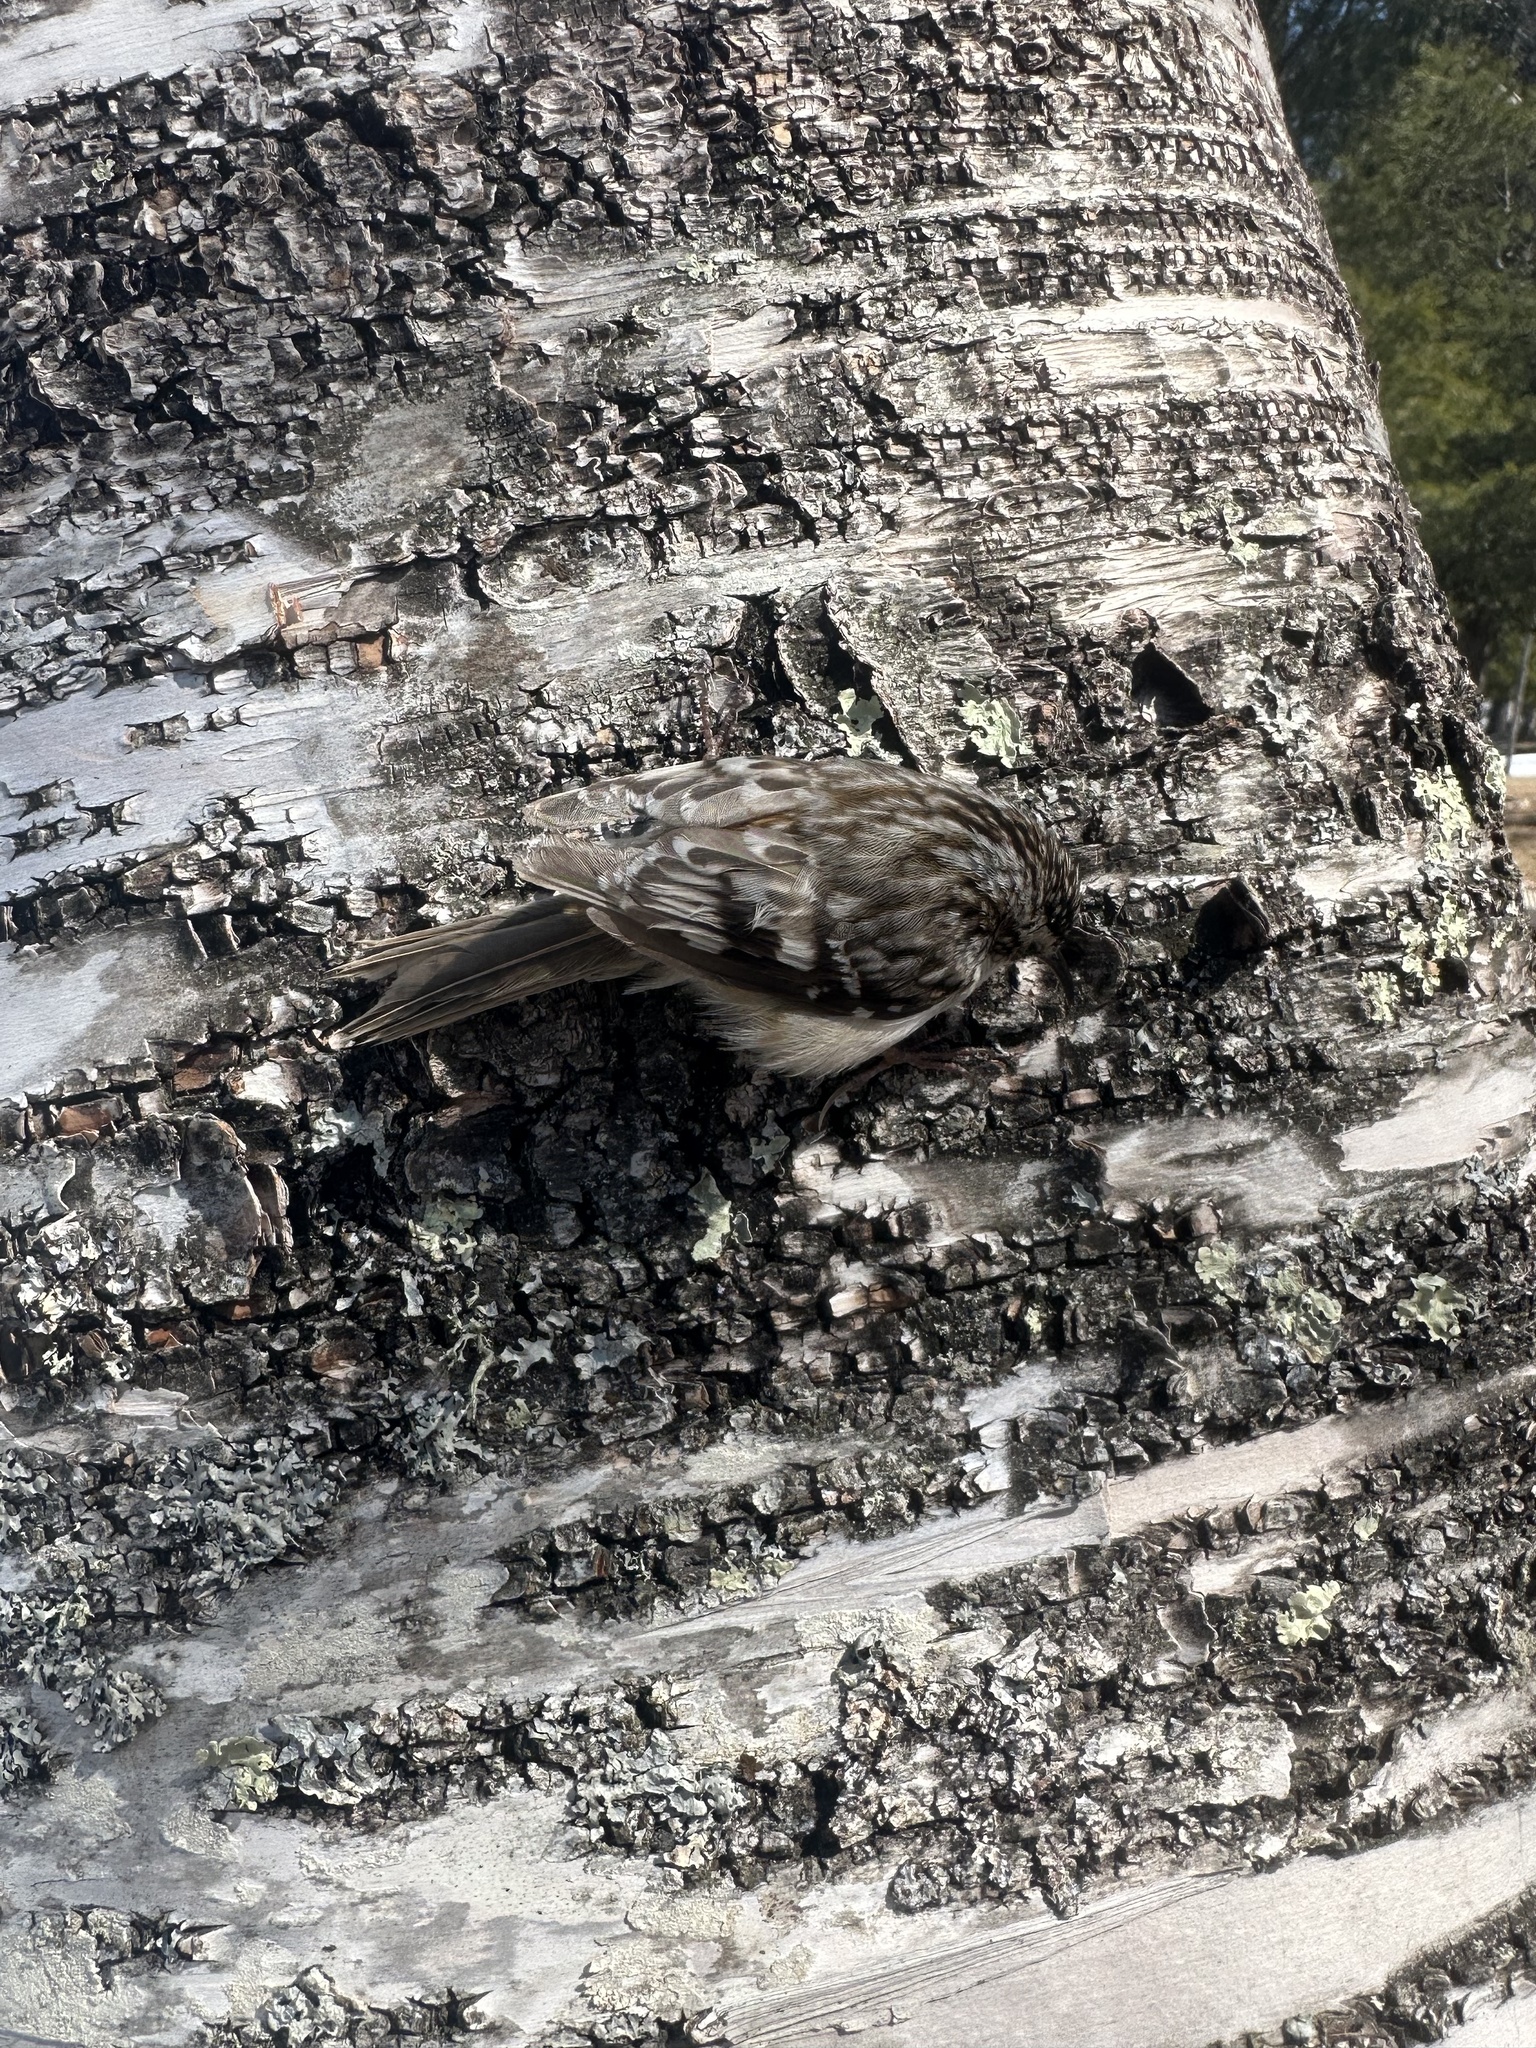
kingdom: Animalia
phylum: Chordata
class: Aves
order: Passeriformes
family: Certhiidae
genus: Certhia
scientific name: Certhia americana
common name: Brown creeper
